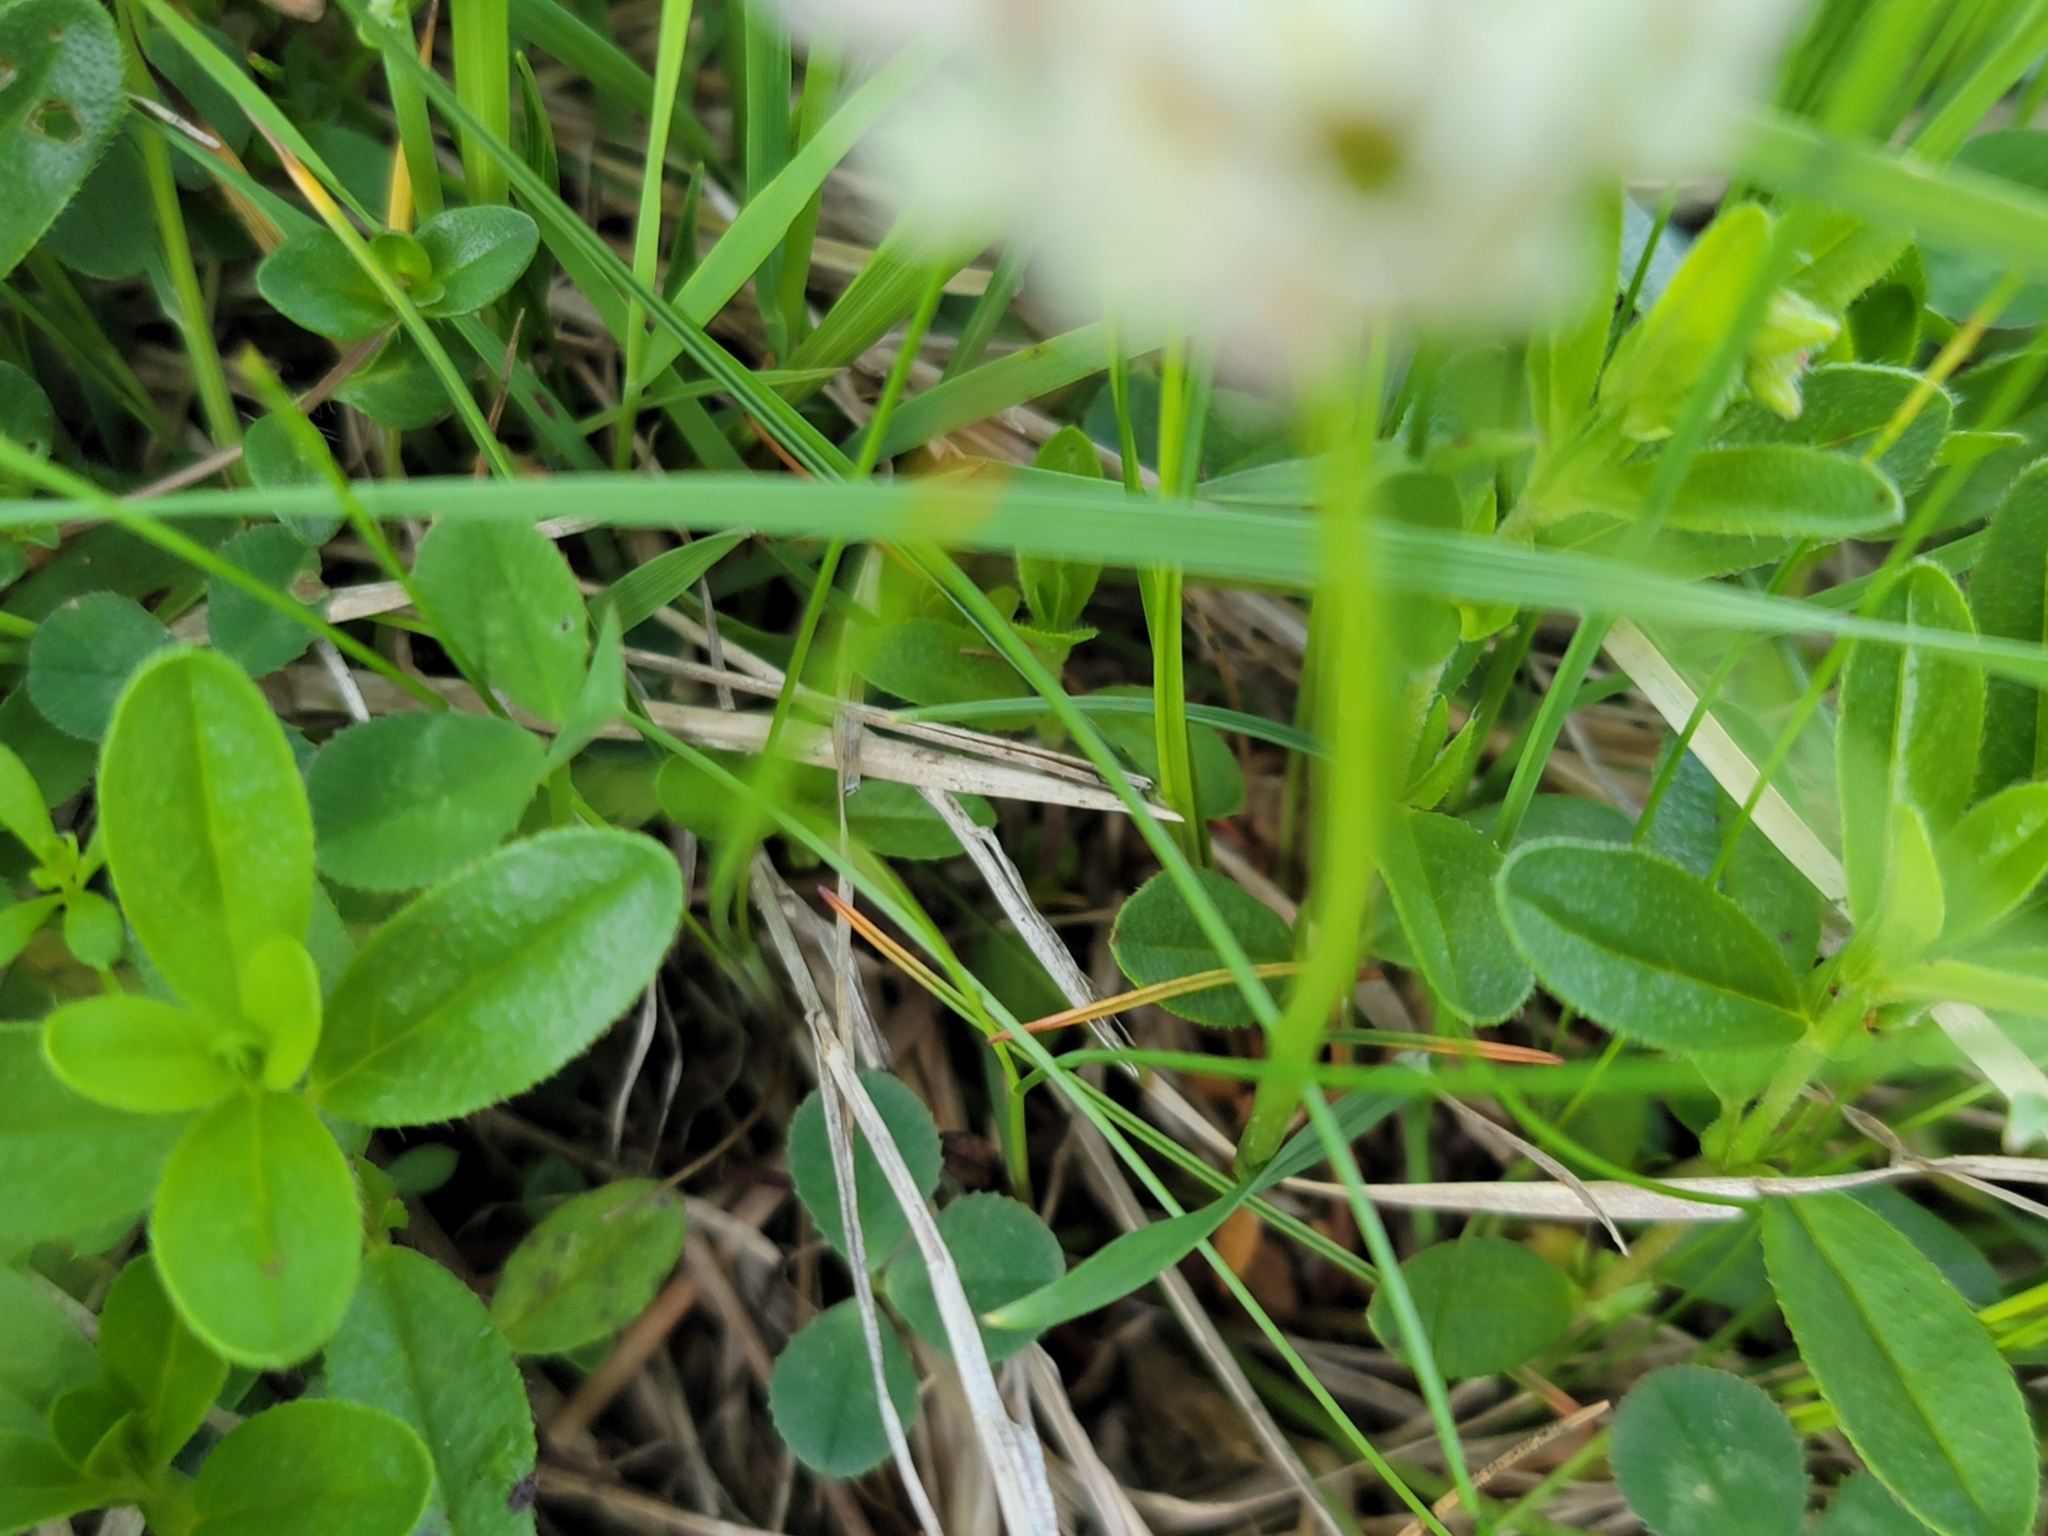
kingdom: Plantae
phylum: Tracheophyta
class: Magnoliopsida
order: Fabales
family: Fabaceae
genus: Trifolium
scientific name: Trifolium repens
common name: White clover
